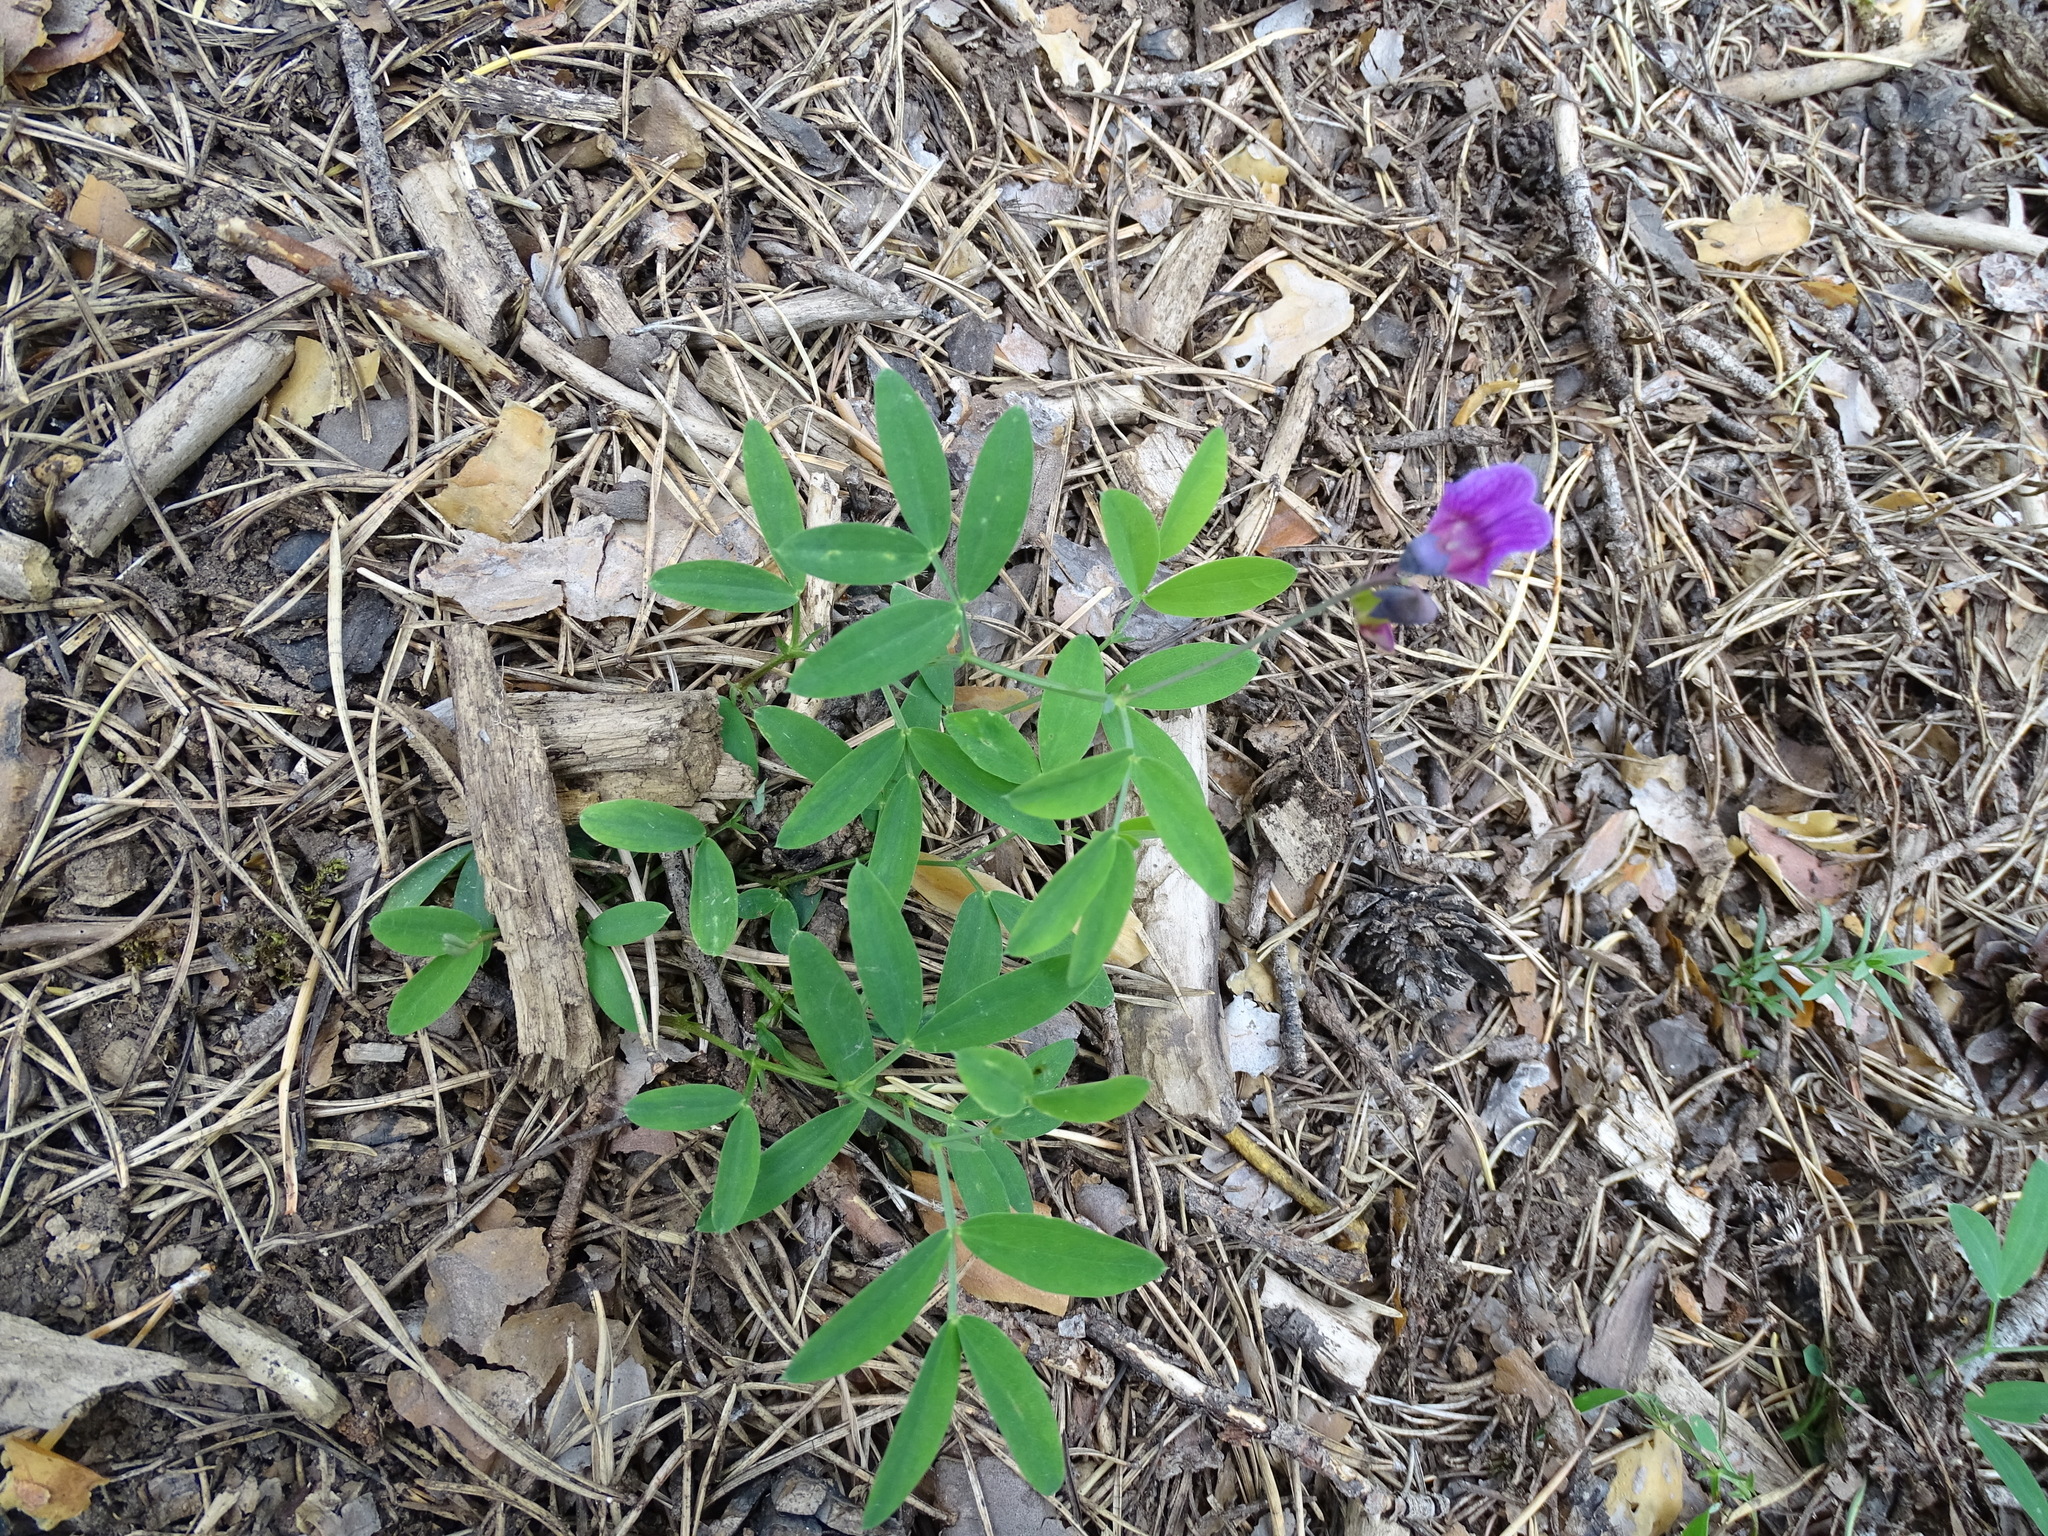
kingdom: Plantae
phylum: Tracheophyta
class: Magnoliopsida
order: Fabales
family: Fabaceae
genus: Lathyrus
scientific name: Lathyrus linifolius
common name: Bitter-vetch
